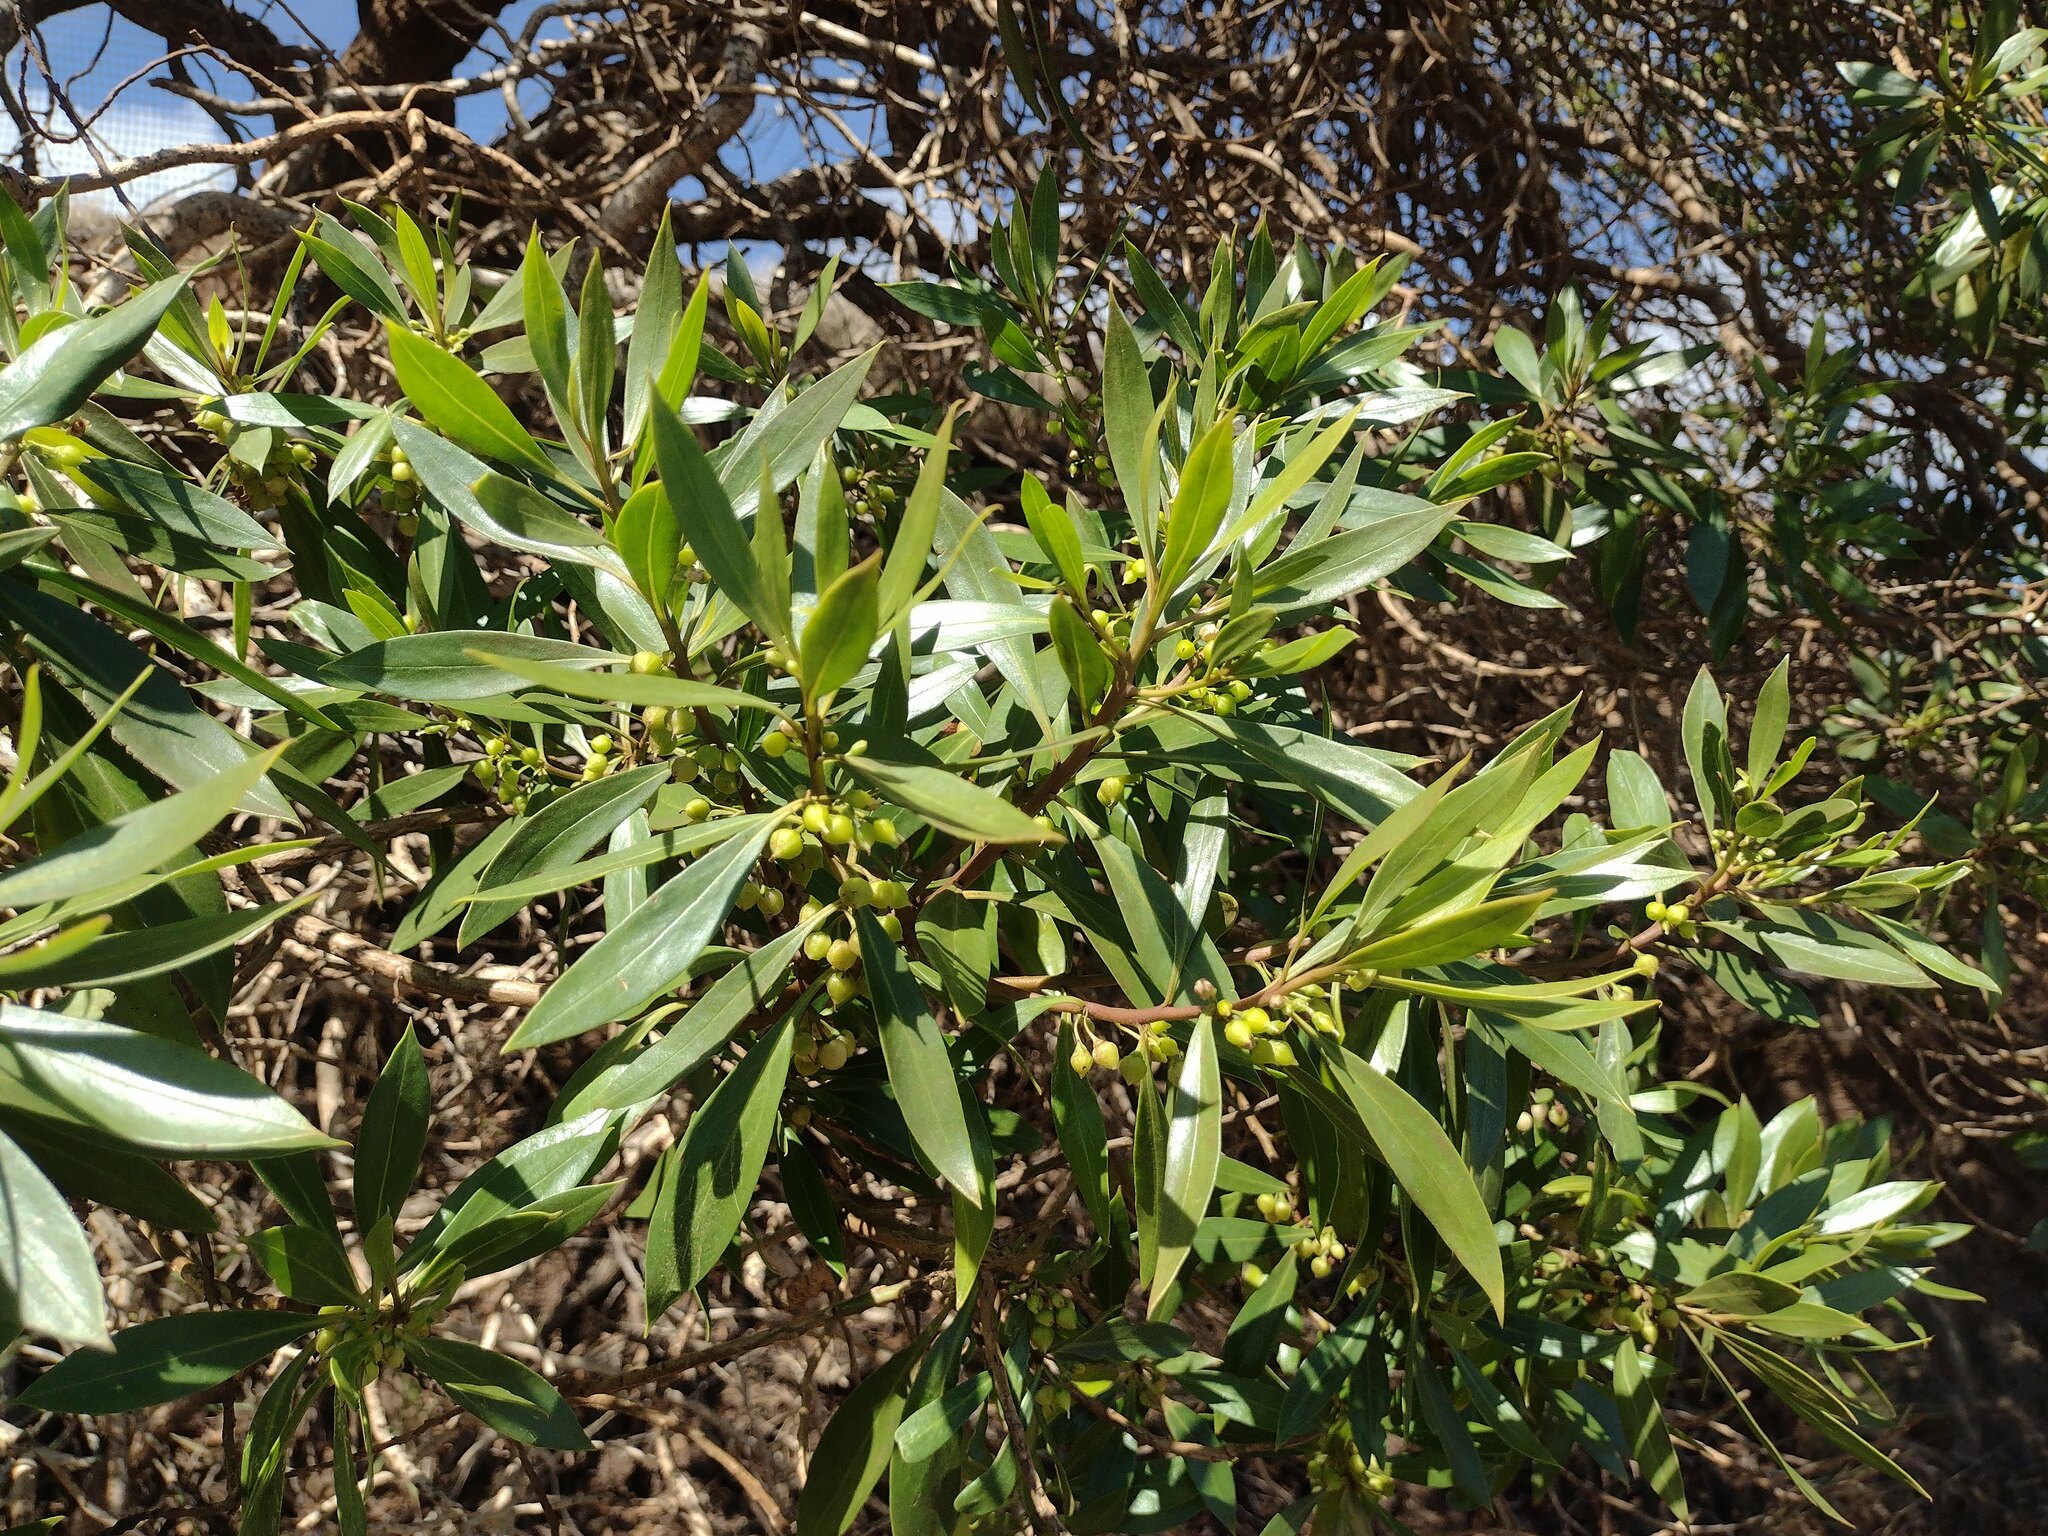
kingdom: Plantae
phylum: Tracheophyta
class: Magnoliopsida
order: Lamiales
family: Scrophulariaceae
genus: Myoporum
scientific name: Myoporum sandwicense
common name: Bastard-sandalwood
